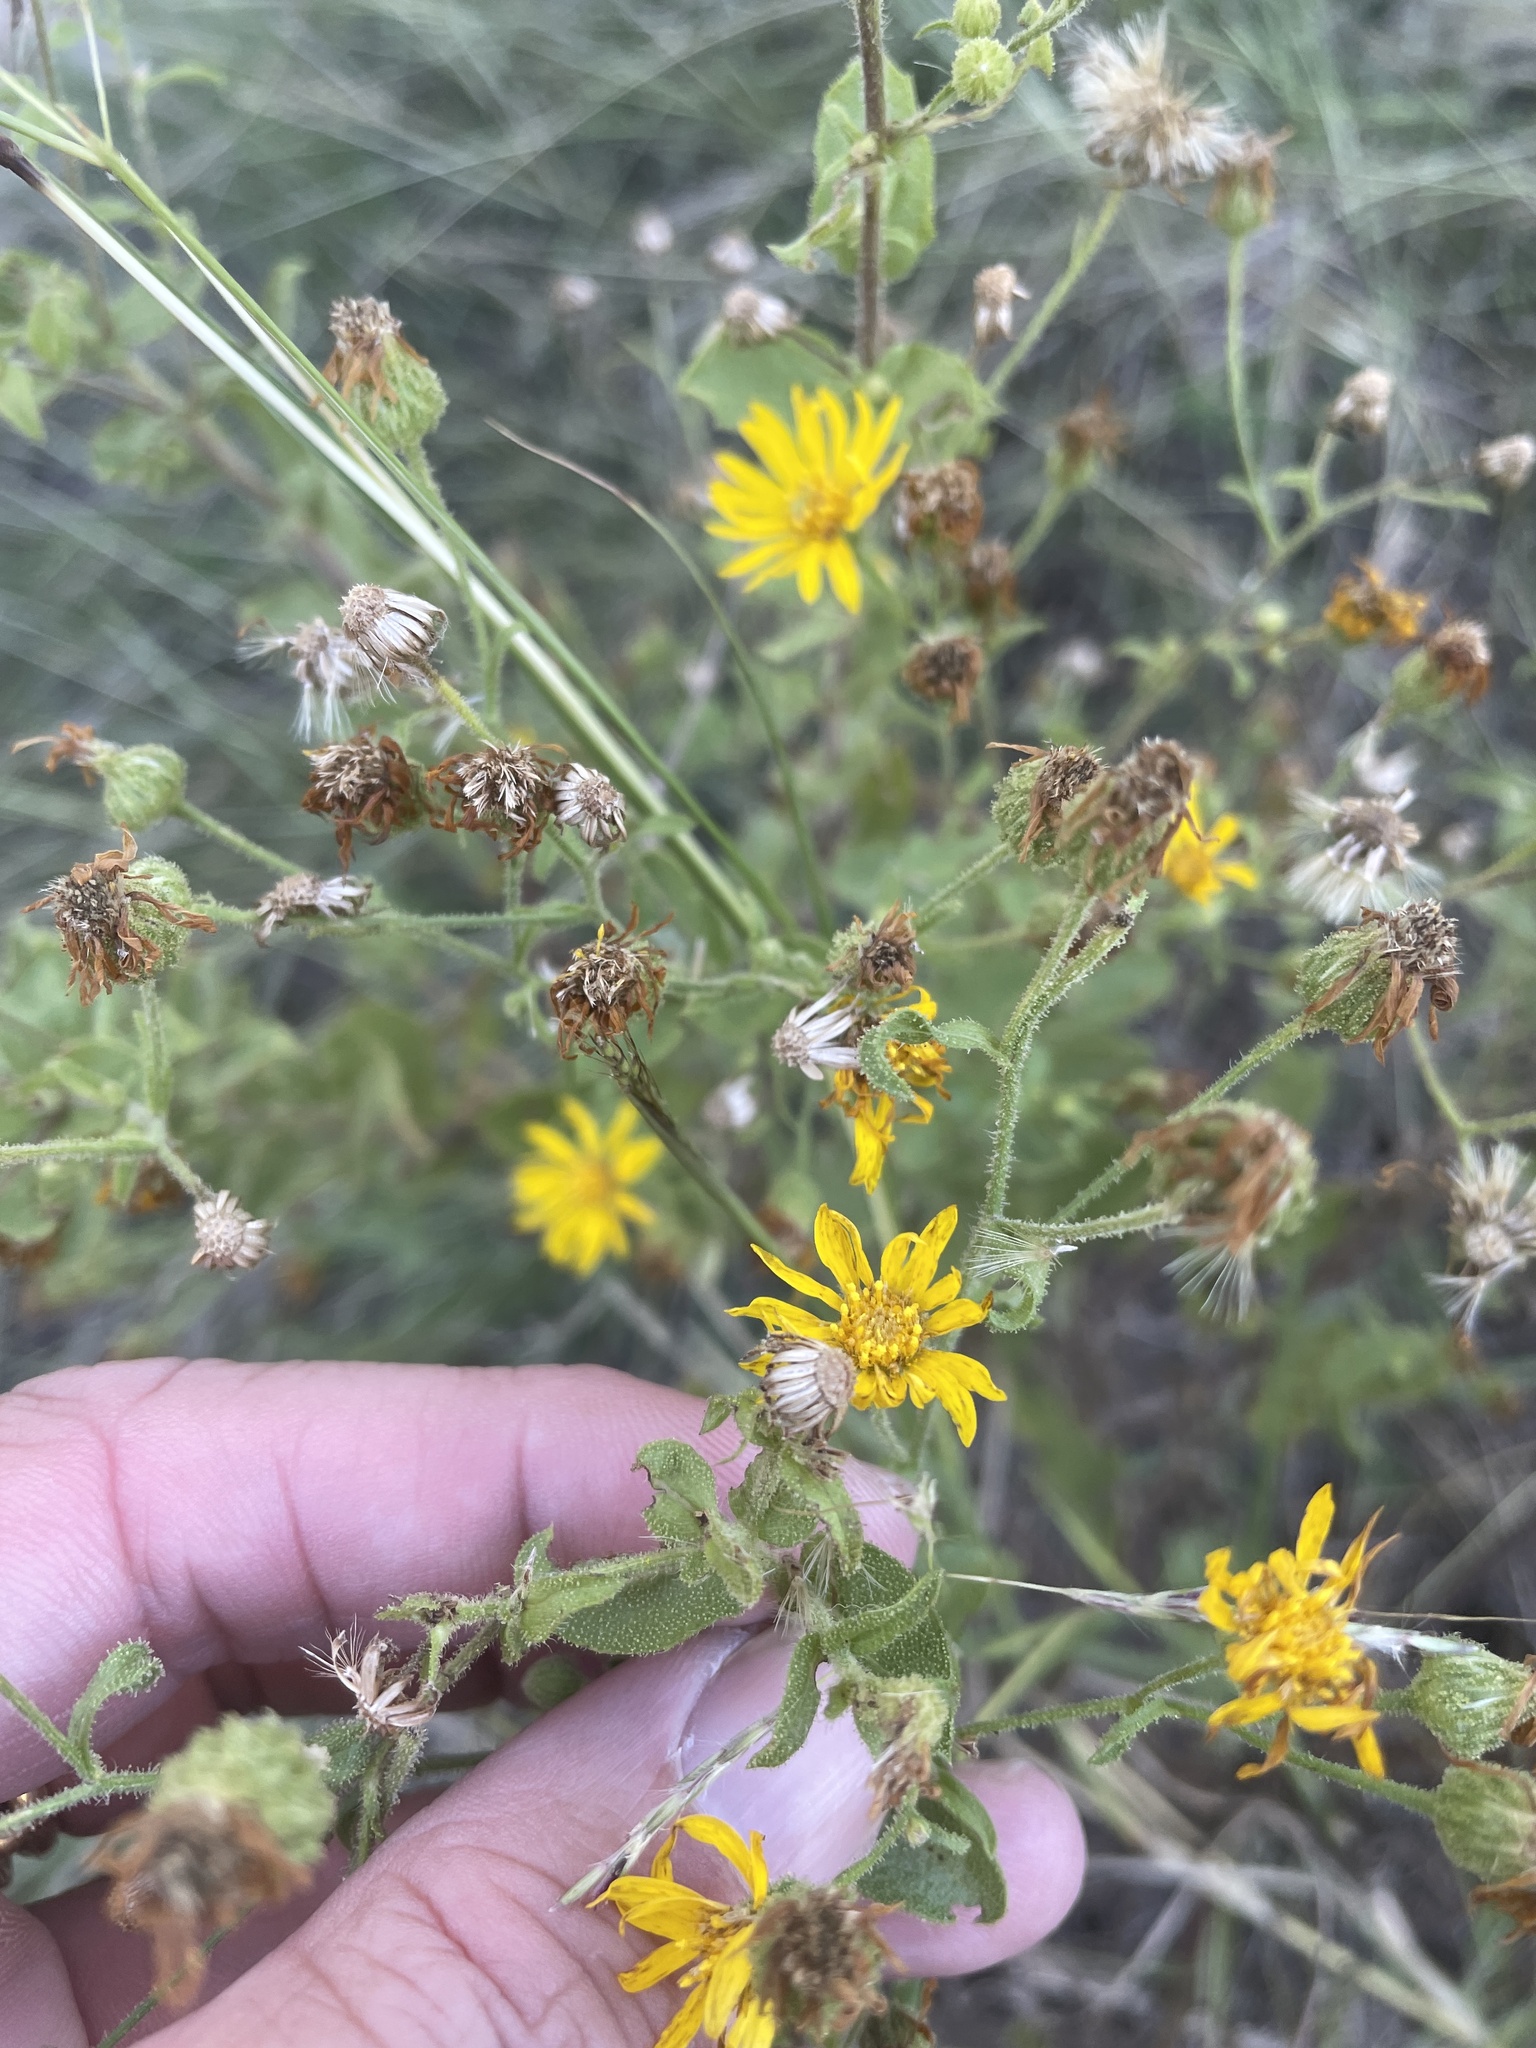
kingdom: Plantae
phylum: Tracheophyta
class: Magnoliopsida
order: Asterales
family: Asteraceae
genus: Heterotheca
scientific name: Heterotheca subaxillaris
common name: Camphorweed
